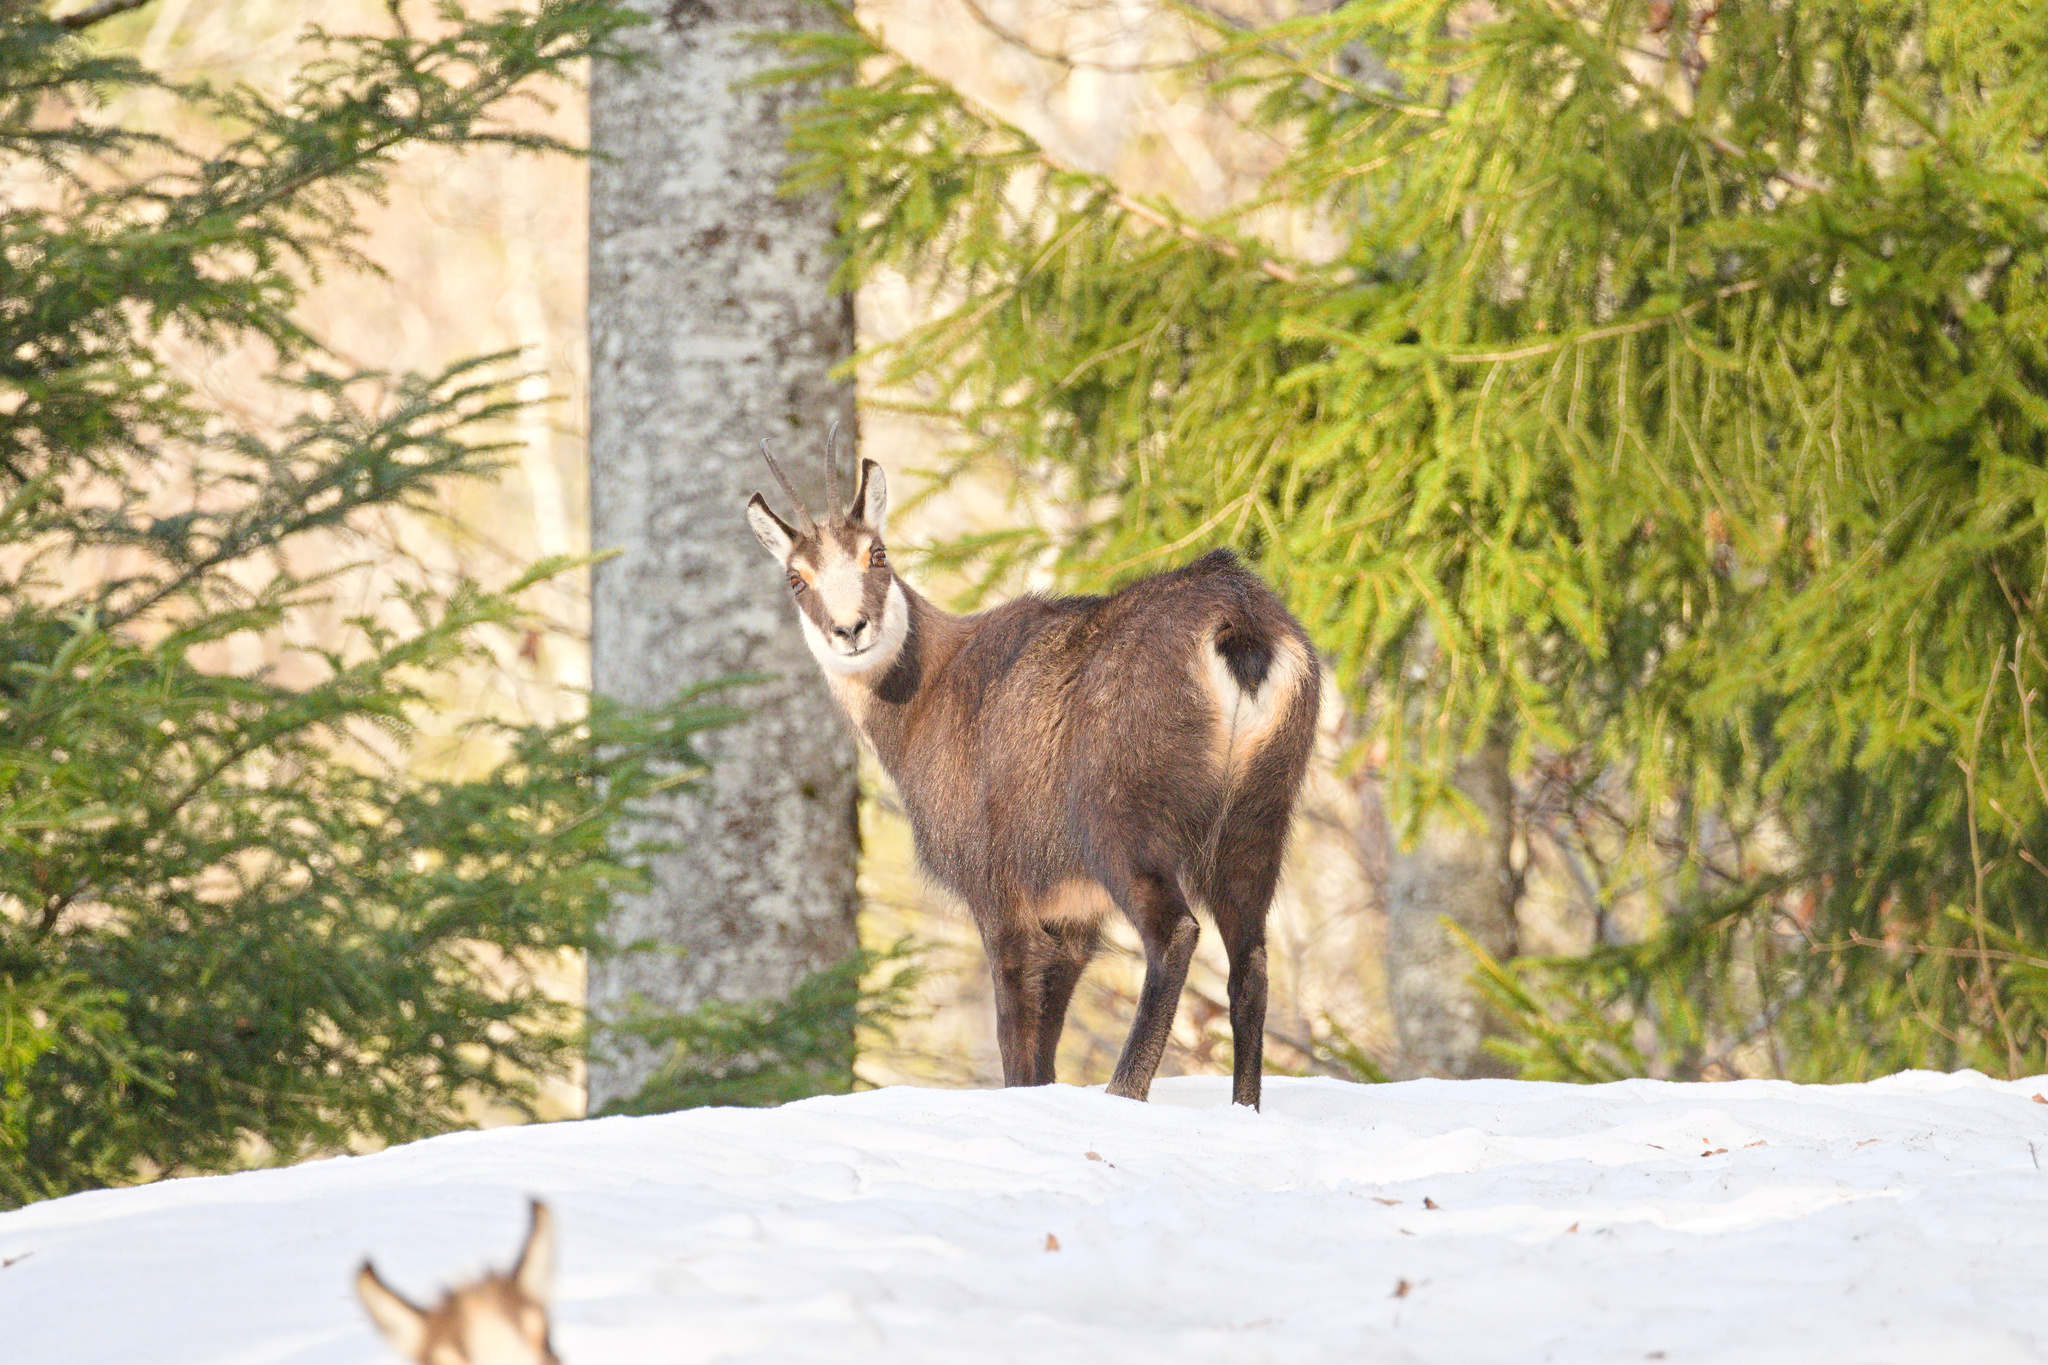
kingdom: Animalia
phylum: Chordata
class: Mammalia
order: Artiodactyla
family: Bovidae
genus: Rupicapra
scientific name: Rupicapra rupicapra
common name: Chamois
